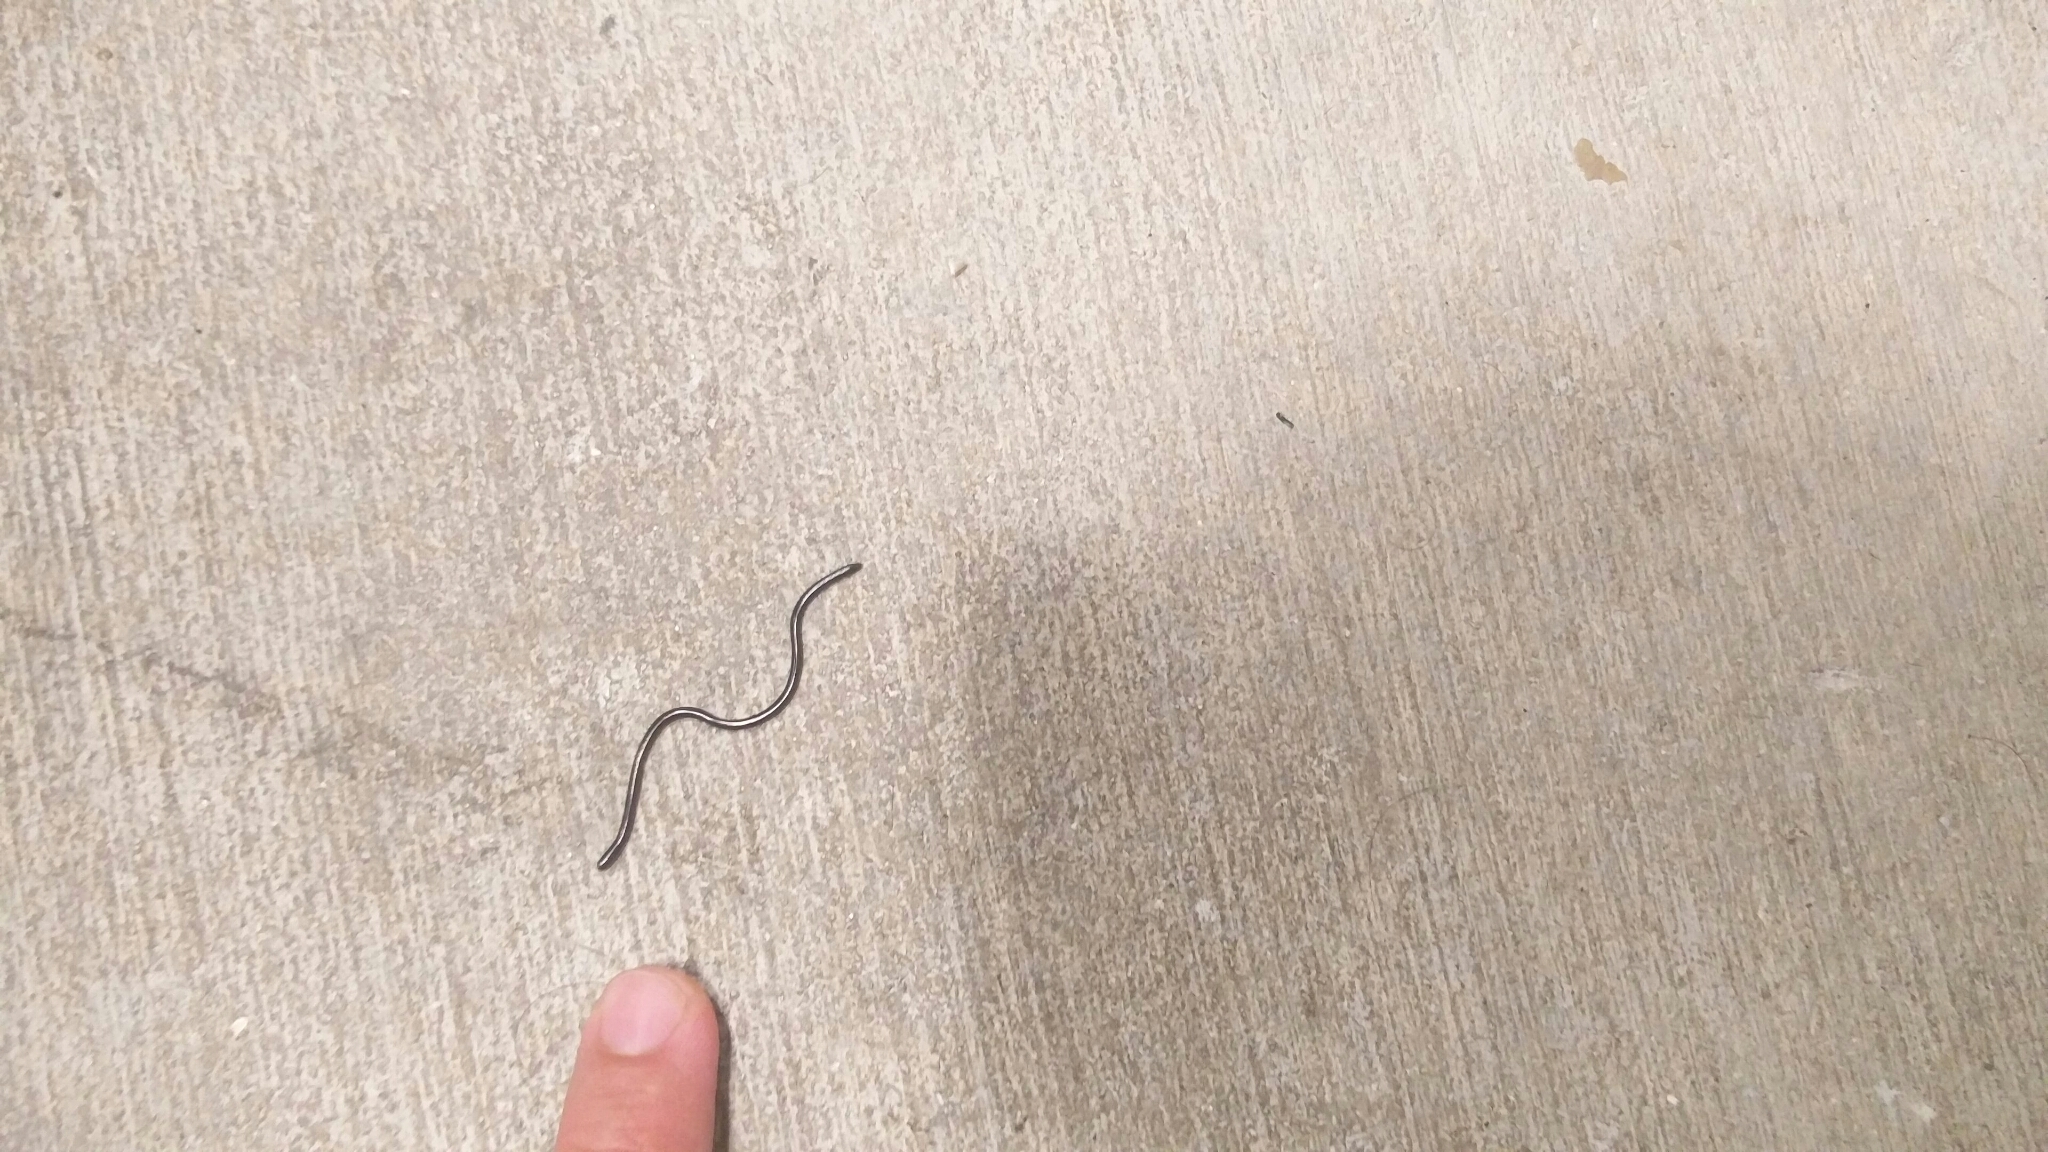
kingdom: Animalia
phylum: Chordata
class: Squamata
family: Typhlopidae
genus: Indotyphlops
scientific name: Indotyphlops braminus
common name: Brahminy blindsnake
